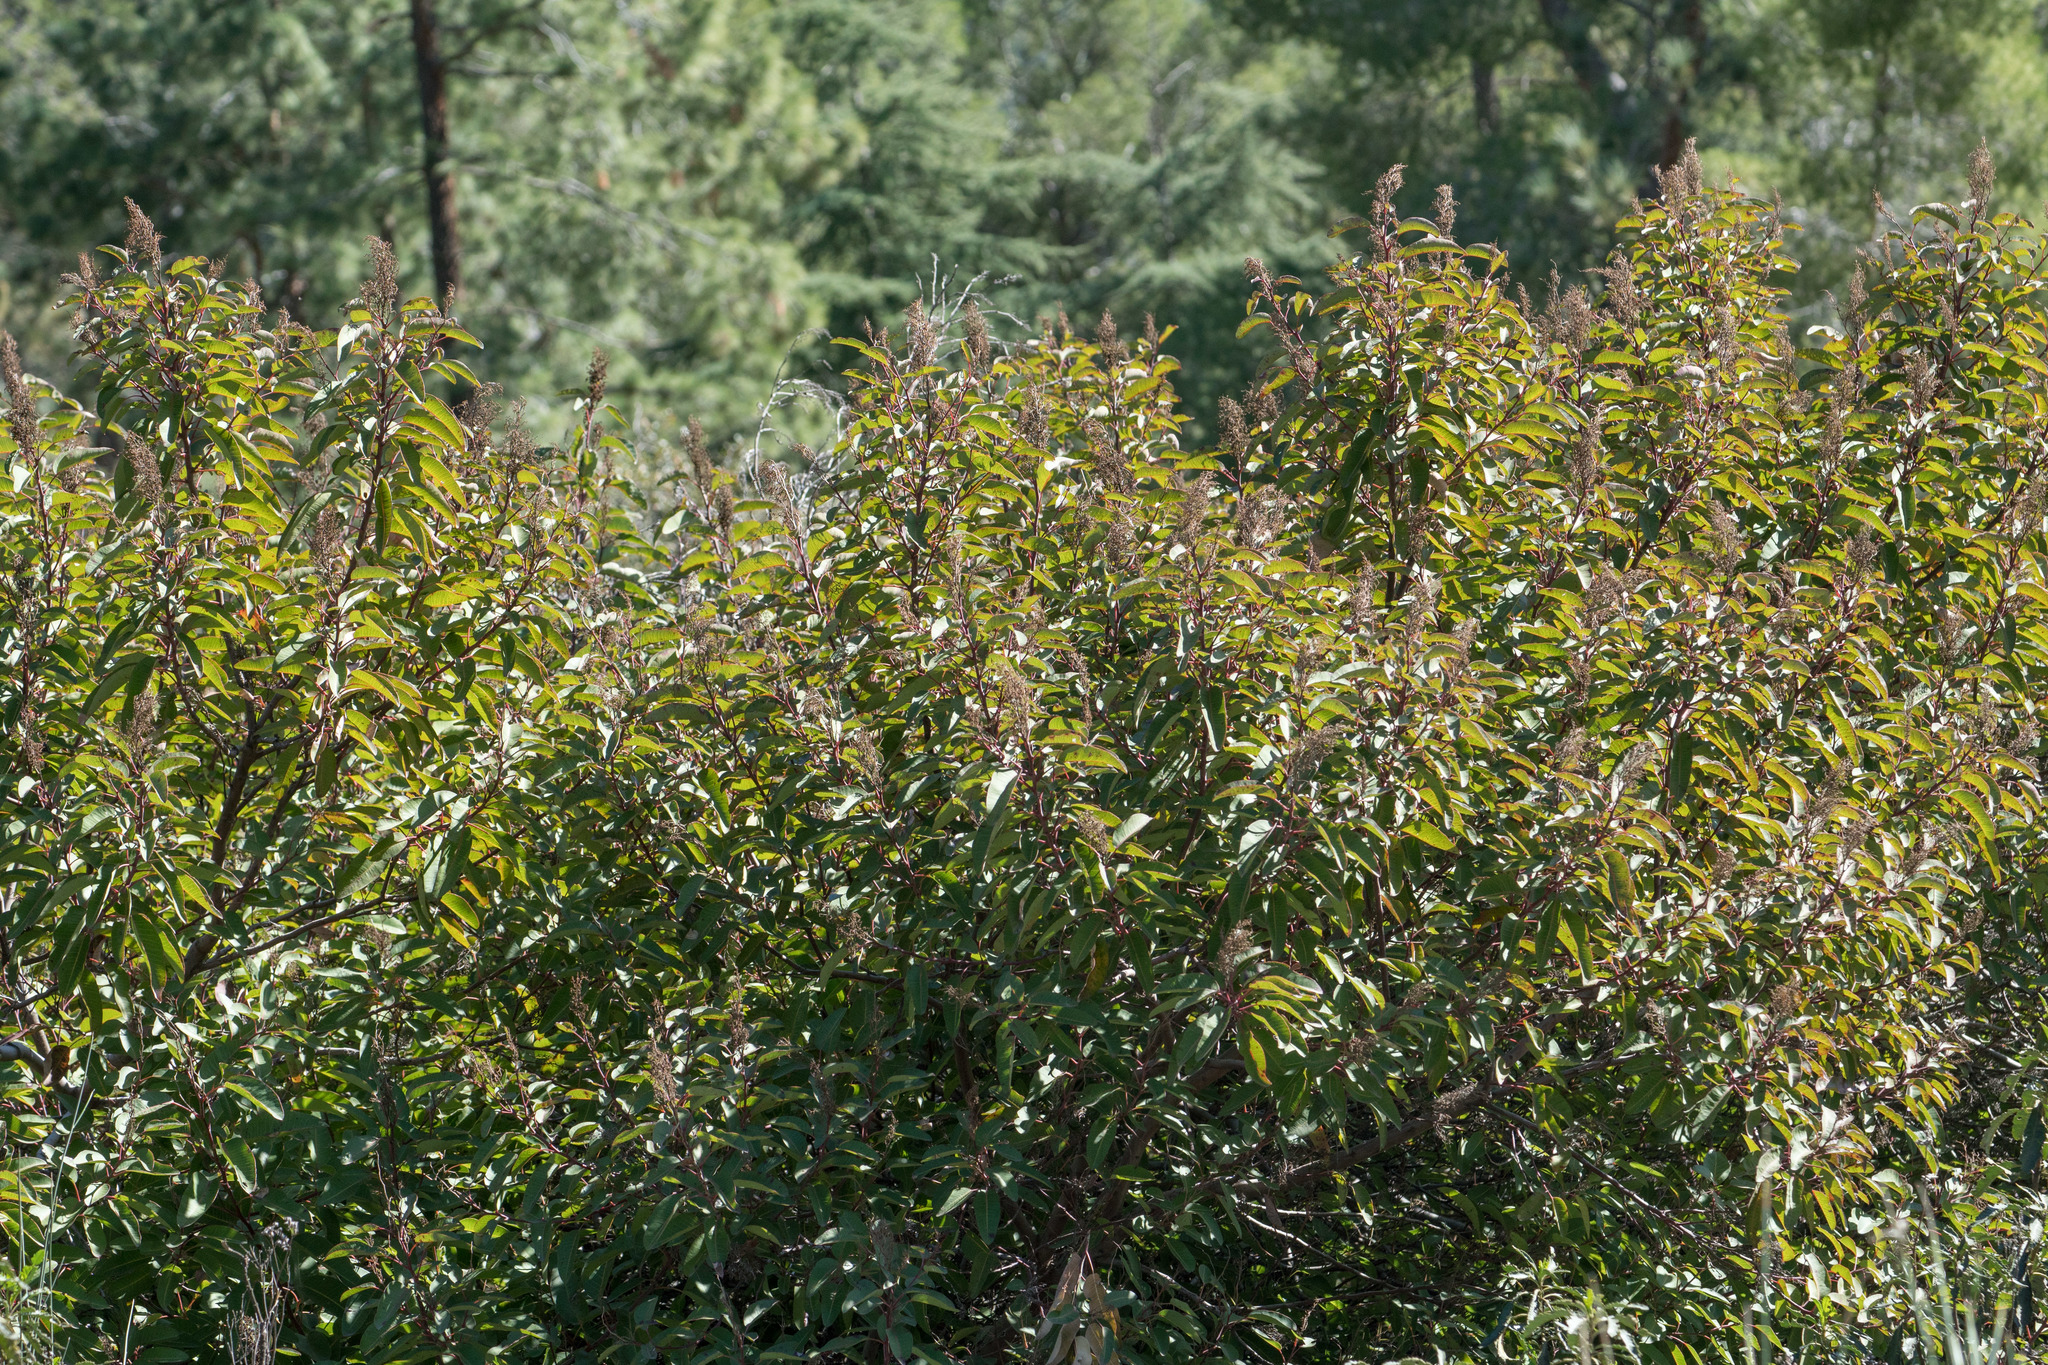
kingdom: Plantae
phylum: Tracheophyta
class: Magnoliopsida
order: Sapindales
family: Anacardiaceae
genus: Malosma
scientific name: Malosma laurina
